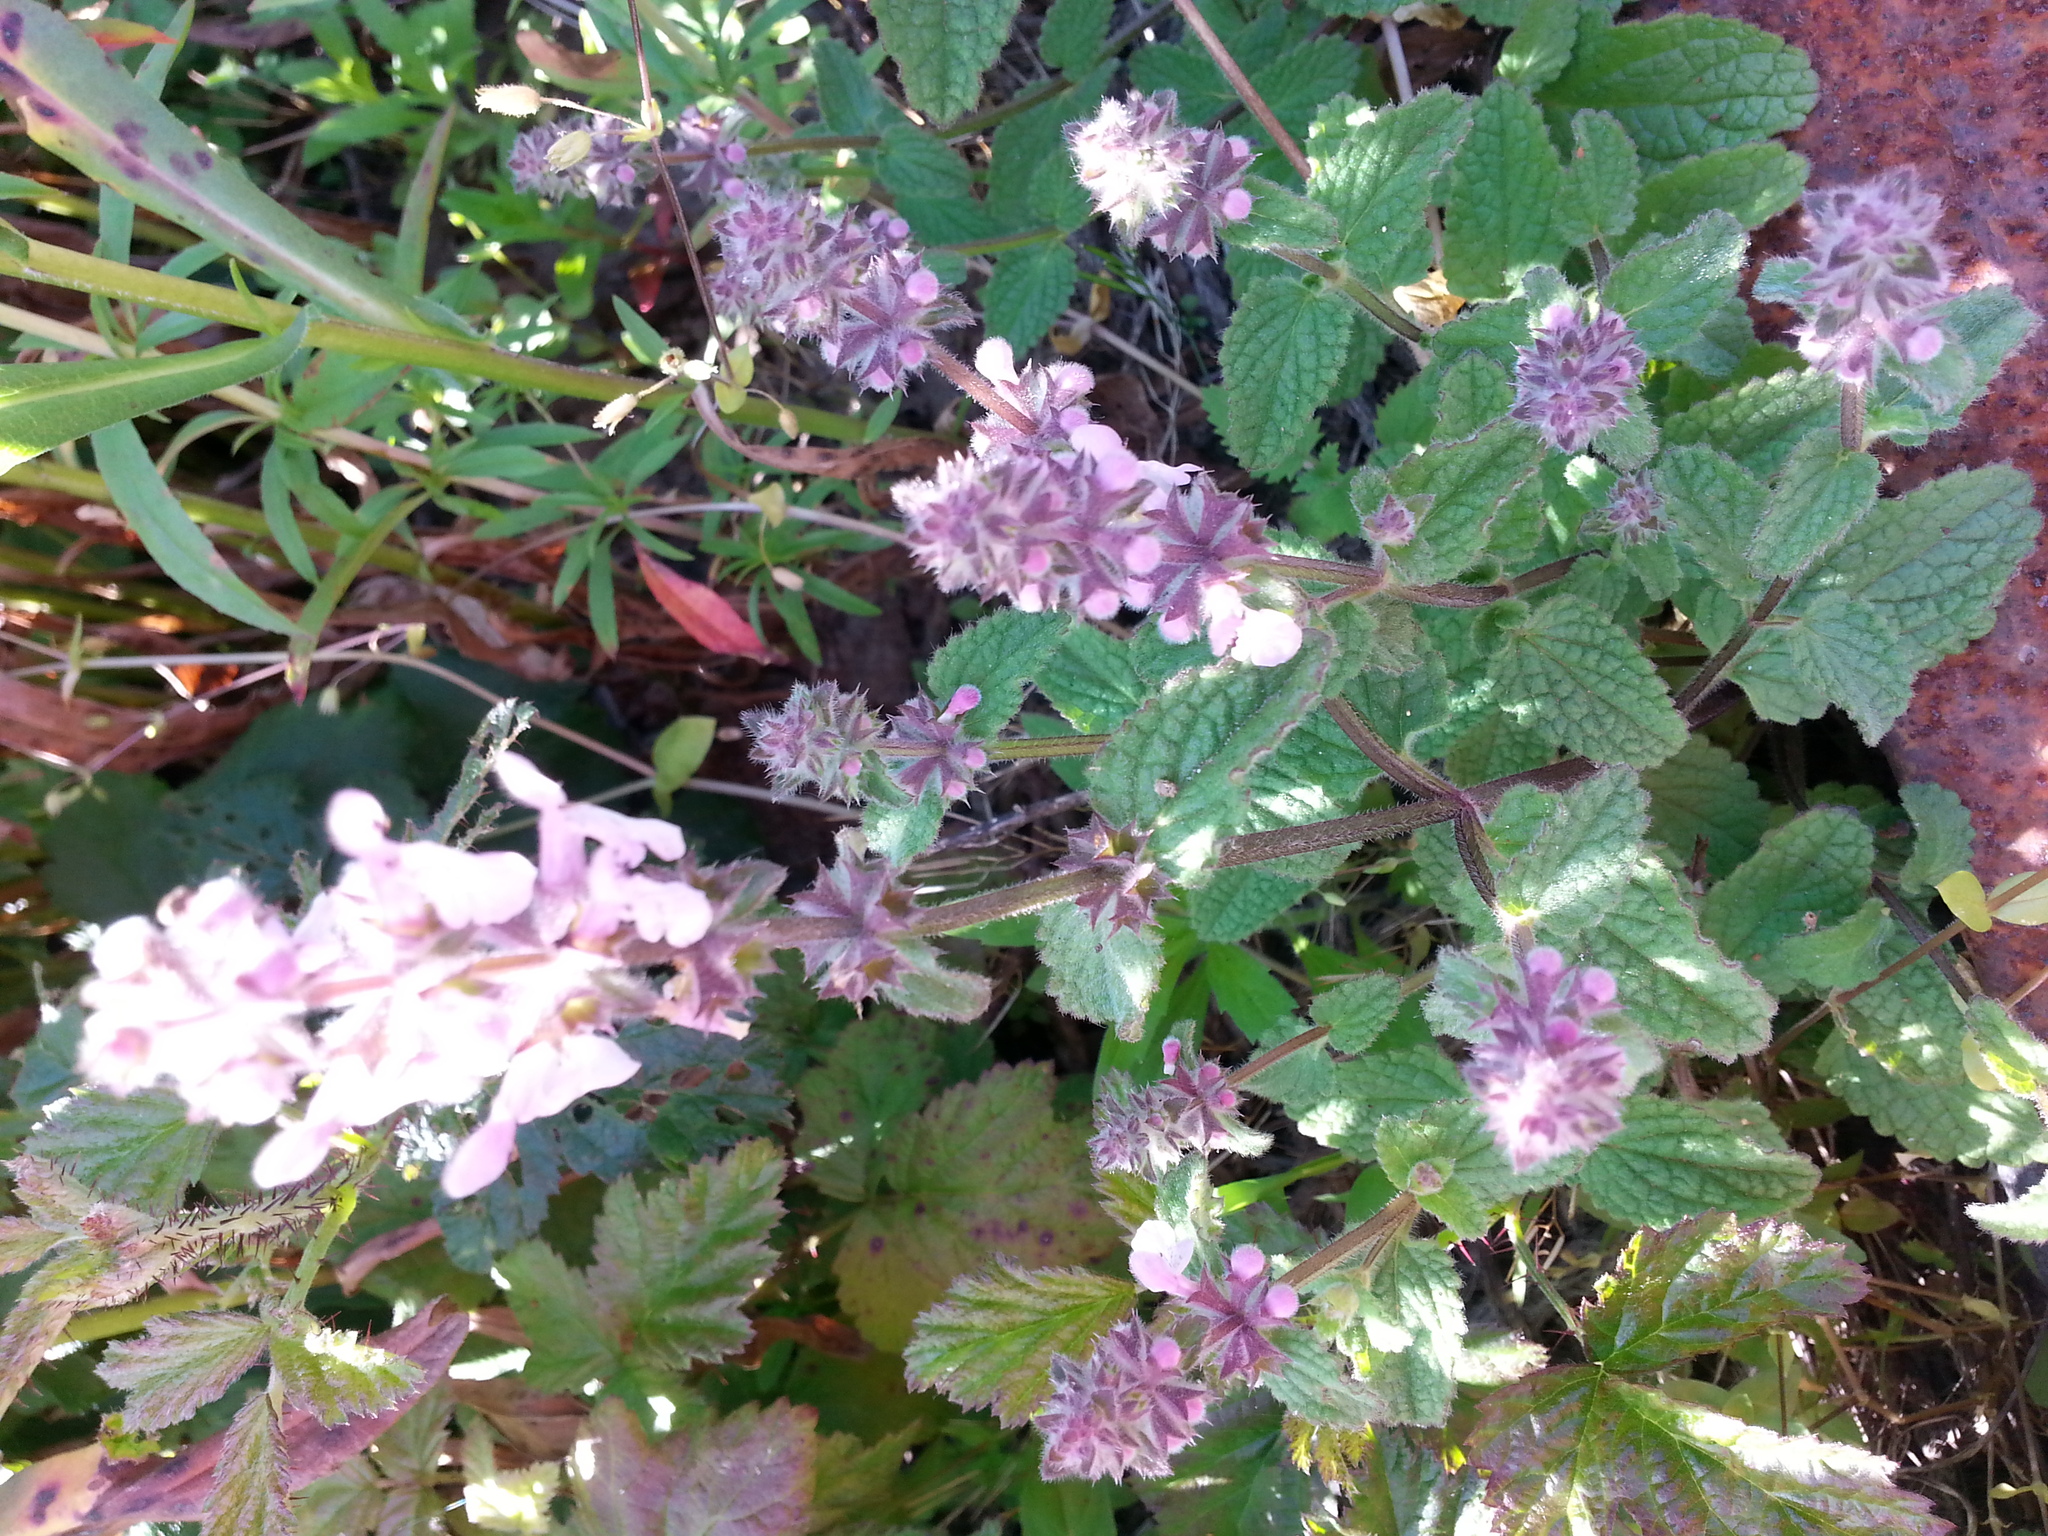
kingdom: Plantae
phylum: Tracheophyta
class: Magnoliopsida
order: Lamiales
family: Lamiaceae
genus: Stachys
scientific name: Stachys rigida
